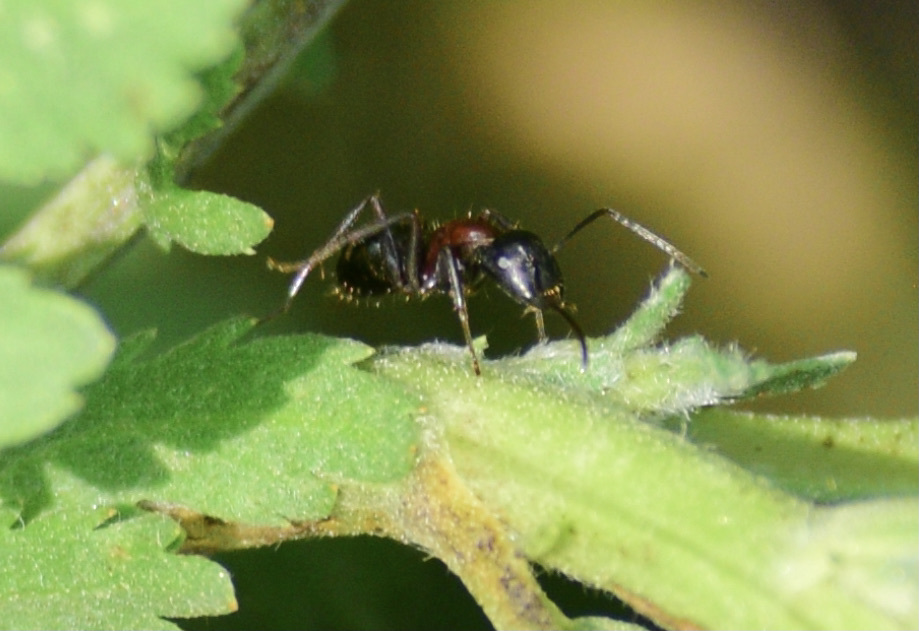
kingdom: Animalia
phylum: Arthropoda
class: Insecta
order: Hymenoptera
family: Formicidae
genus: Camponotus
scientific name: Camponotus novaeboracensis
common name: New york carpenter ant
